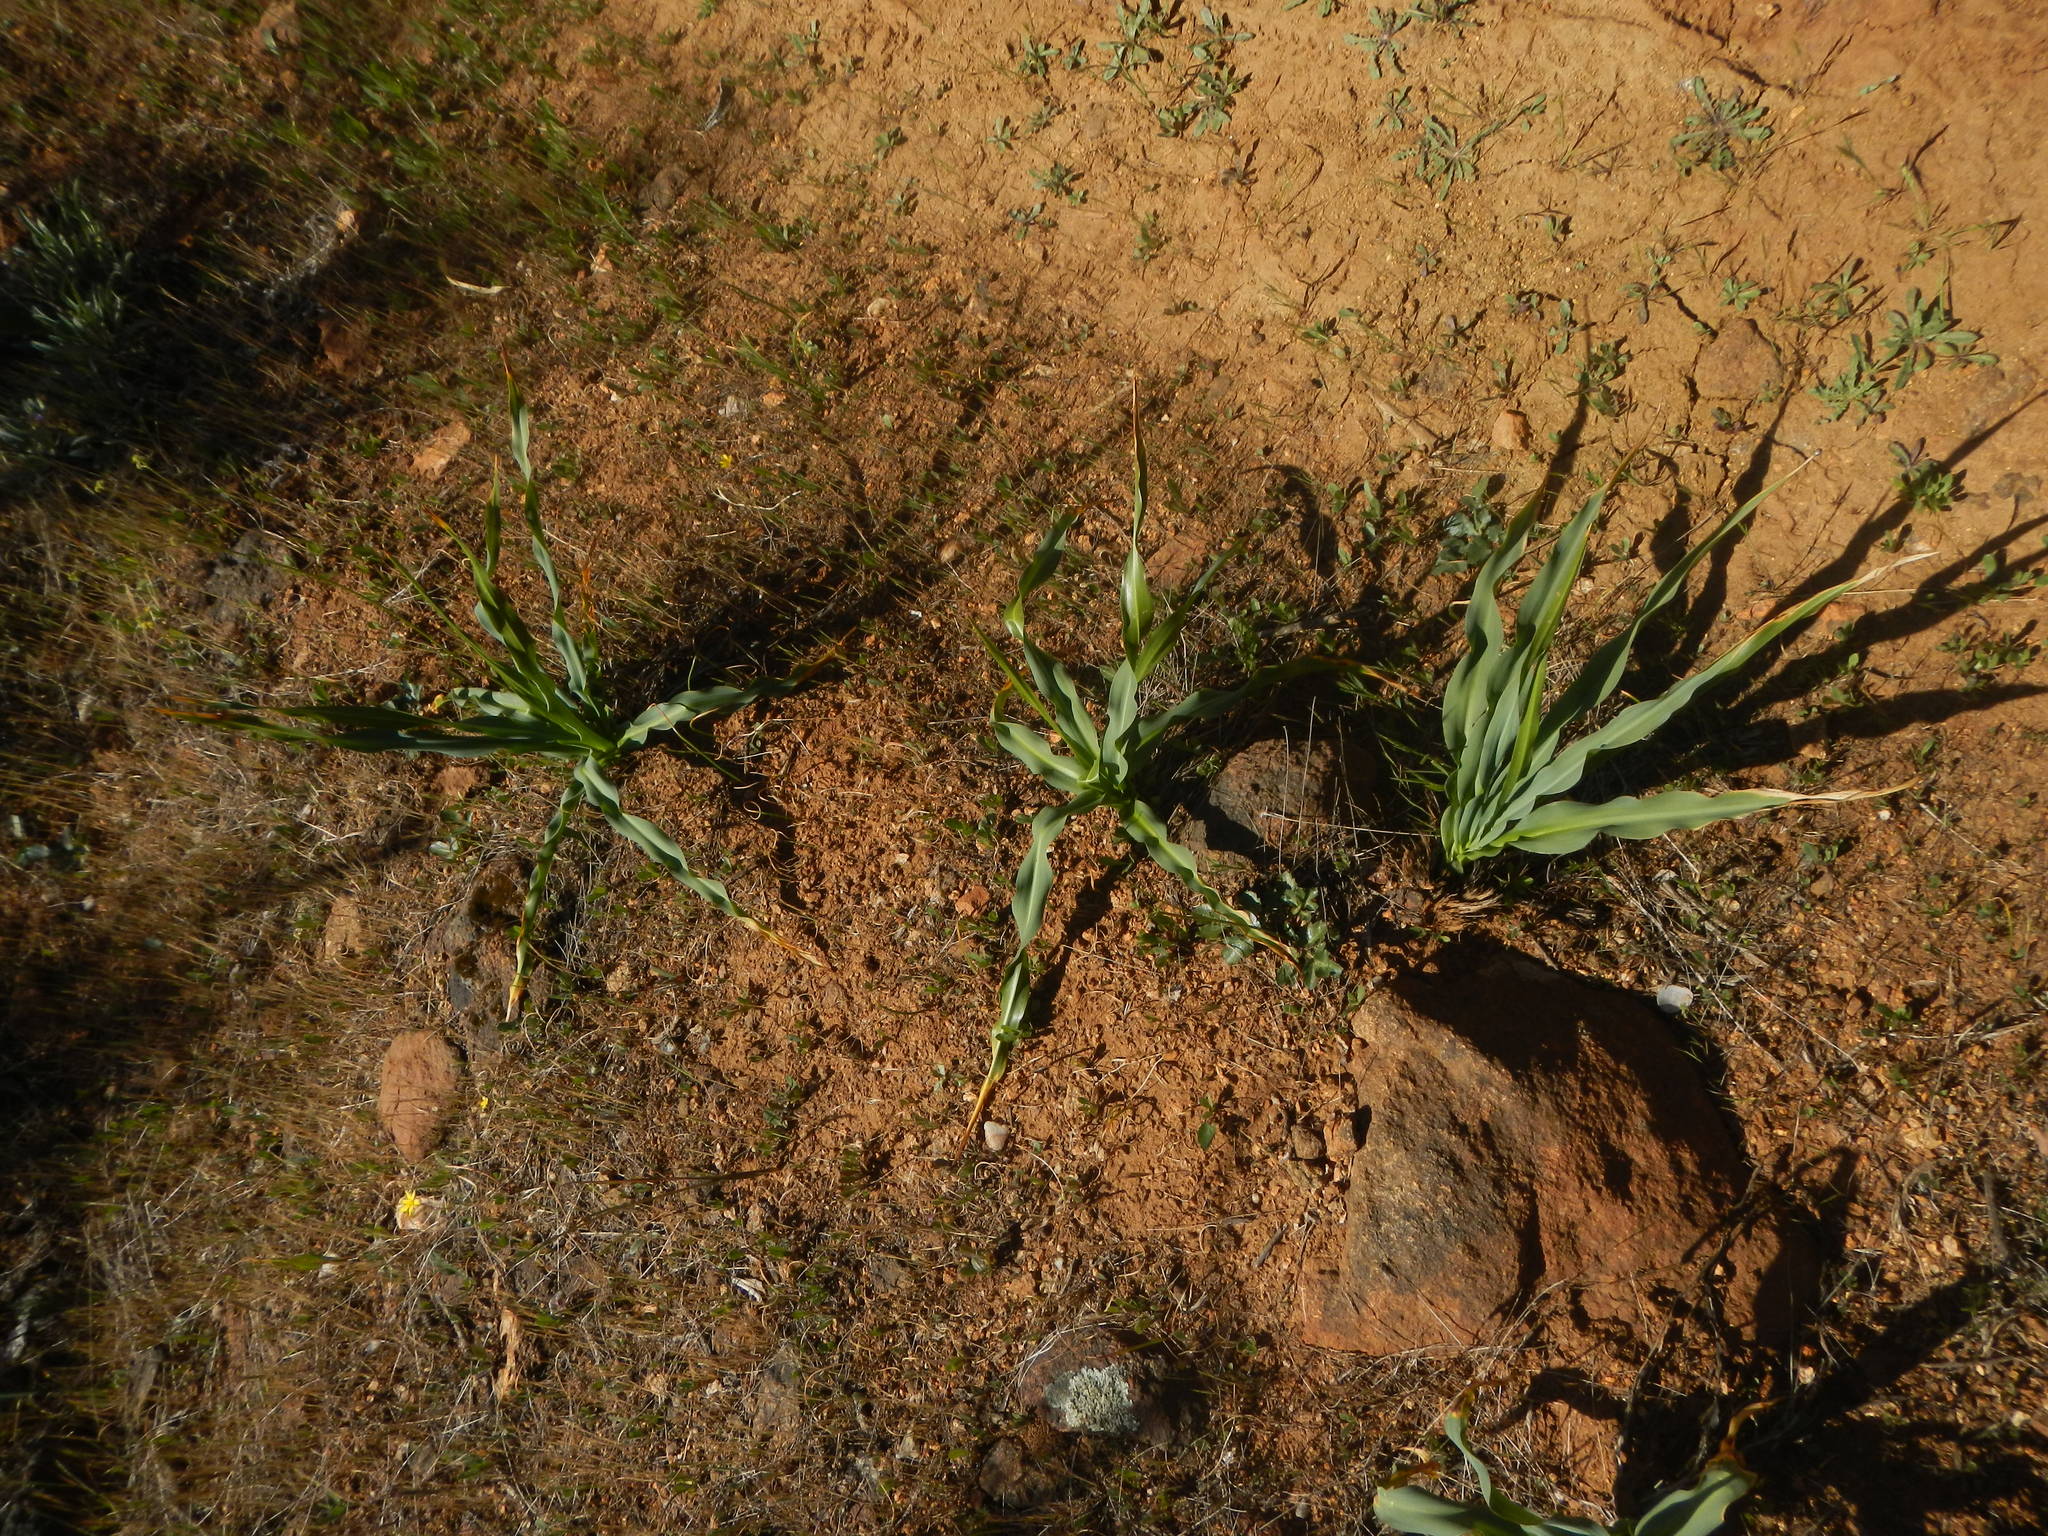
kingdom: Plantae
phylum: Tracheophyta
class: Liliopsida
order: Asparagales
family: Asparagaceae
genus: Chlorogalum
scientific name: Chlorogalum pomeridianum
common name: Amole
